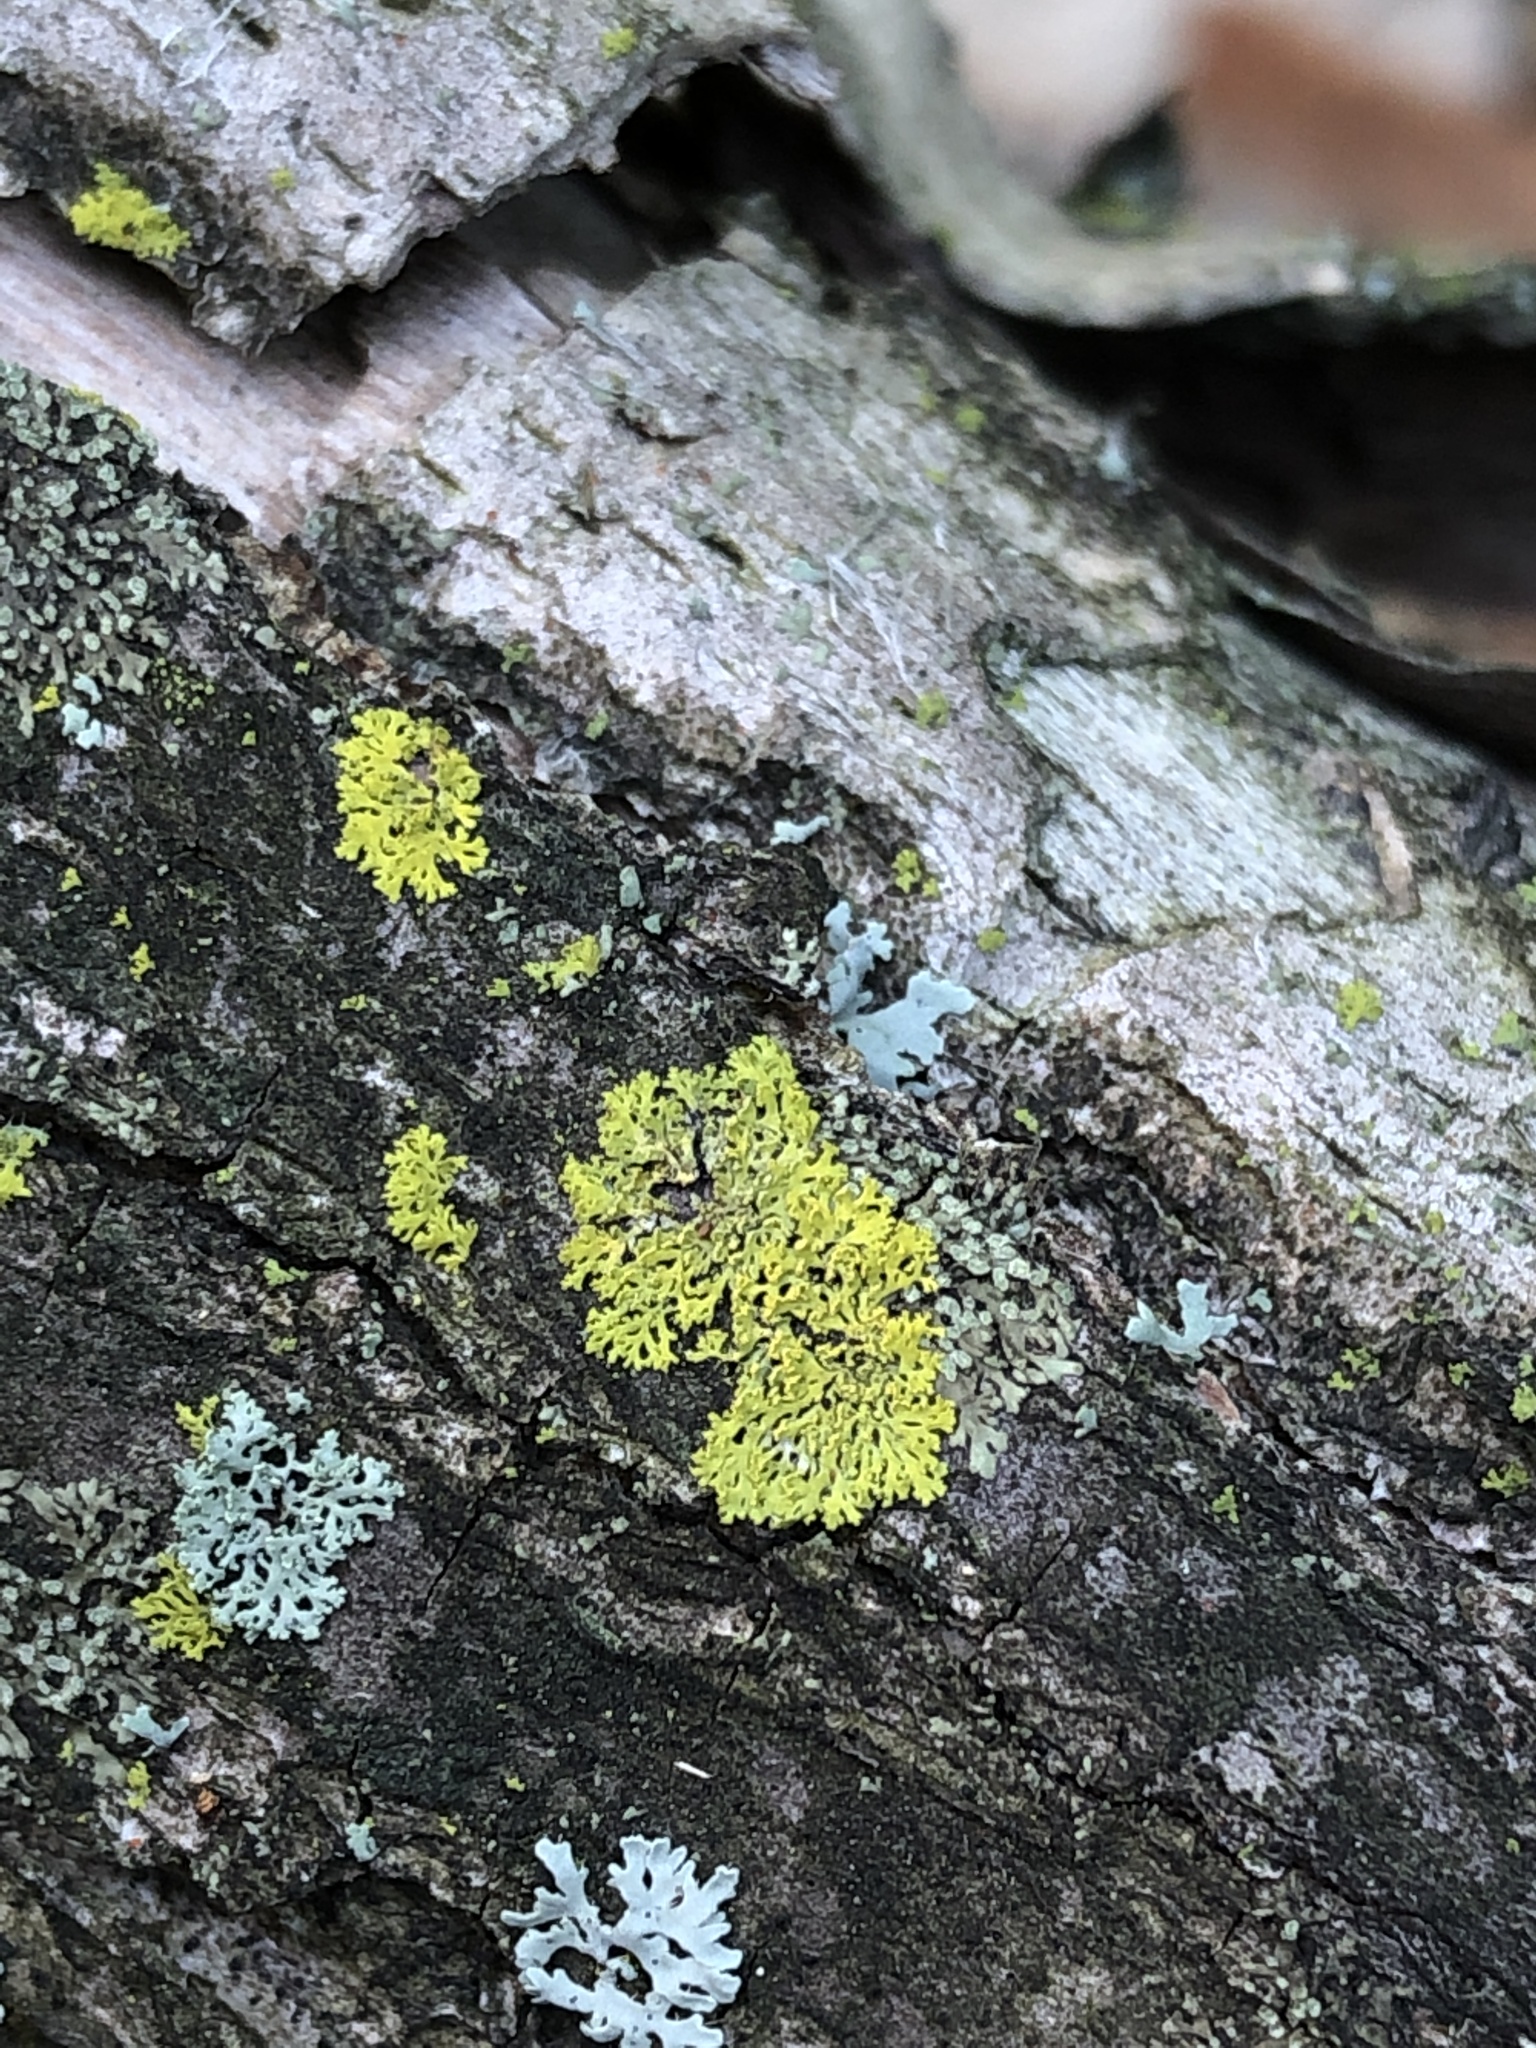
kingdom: Fungi
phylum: Ascomycota
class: Candelariomycetes
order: Candelariales
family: Candelariaceae
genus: Candelaria
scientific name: Candelaria concolor
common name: Candleflame lichen
